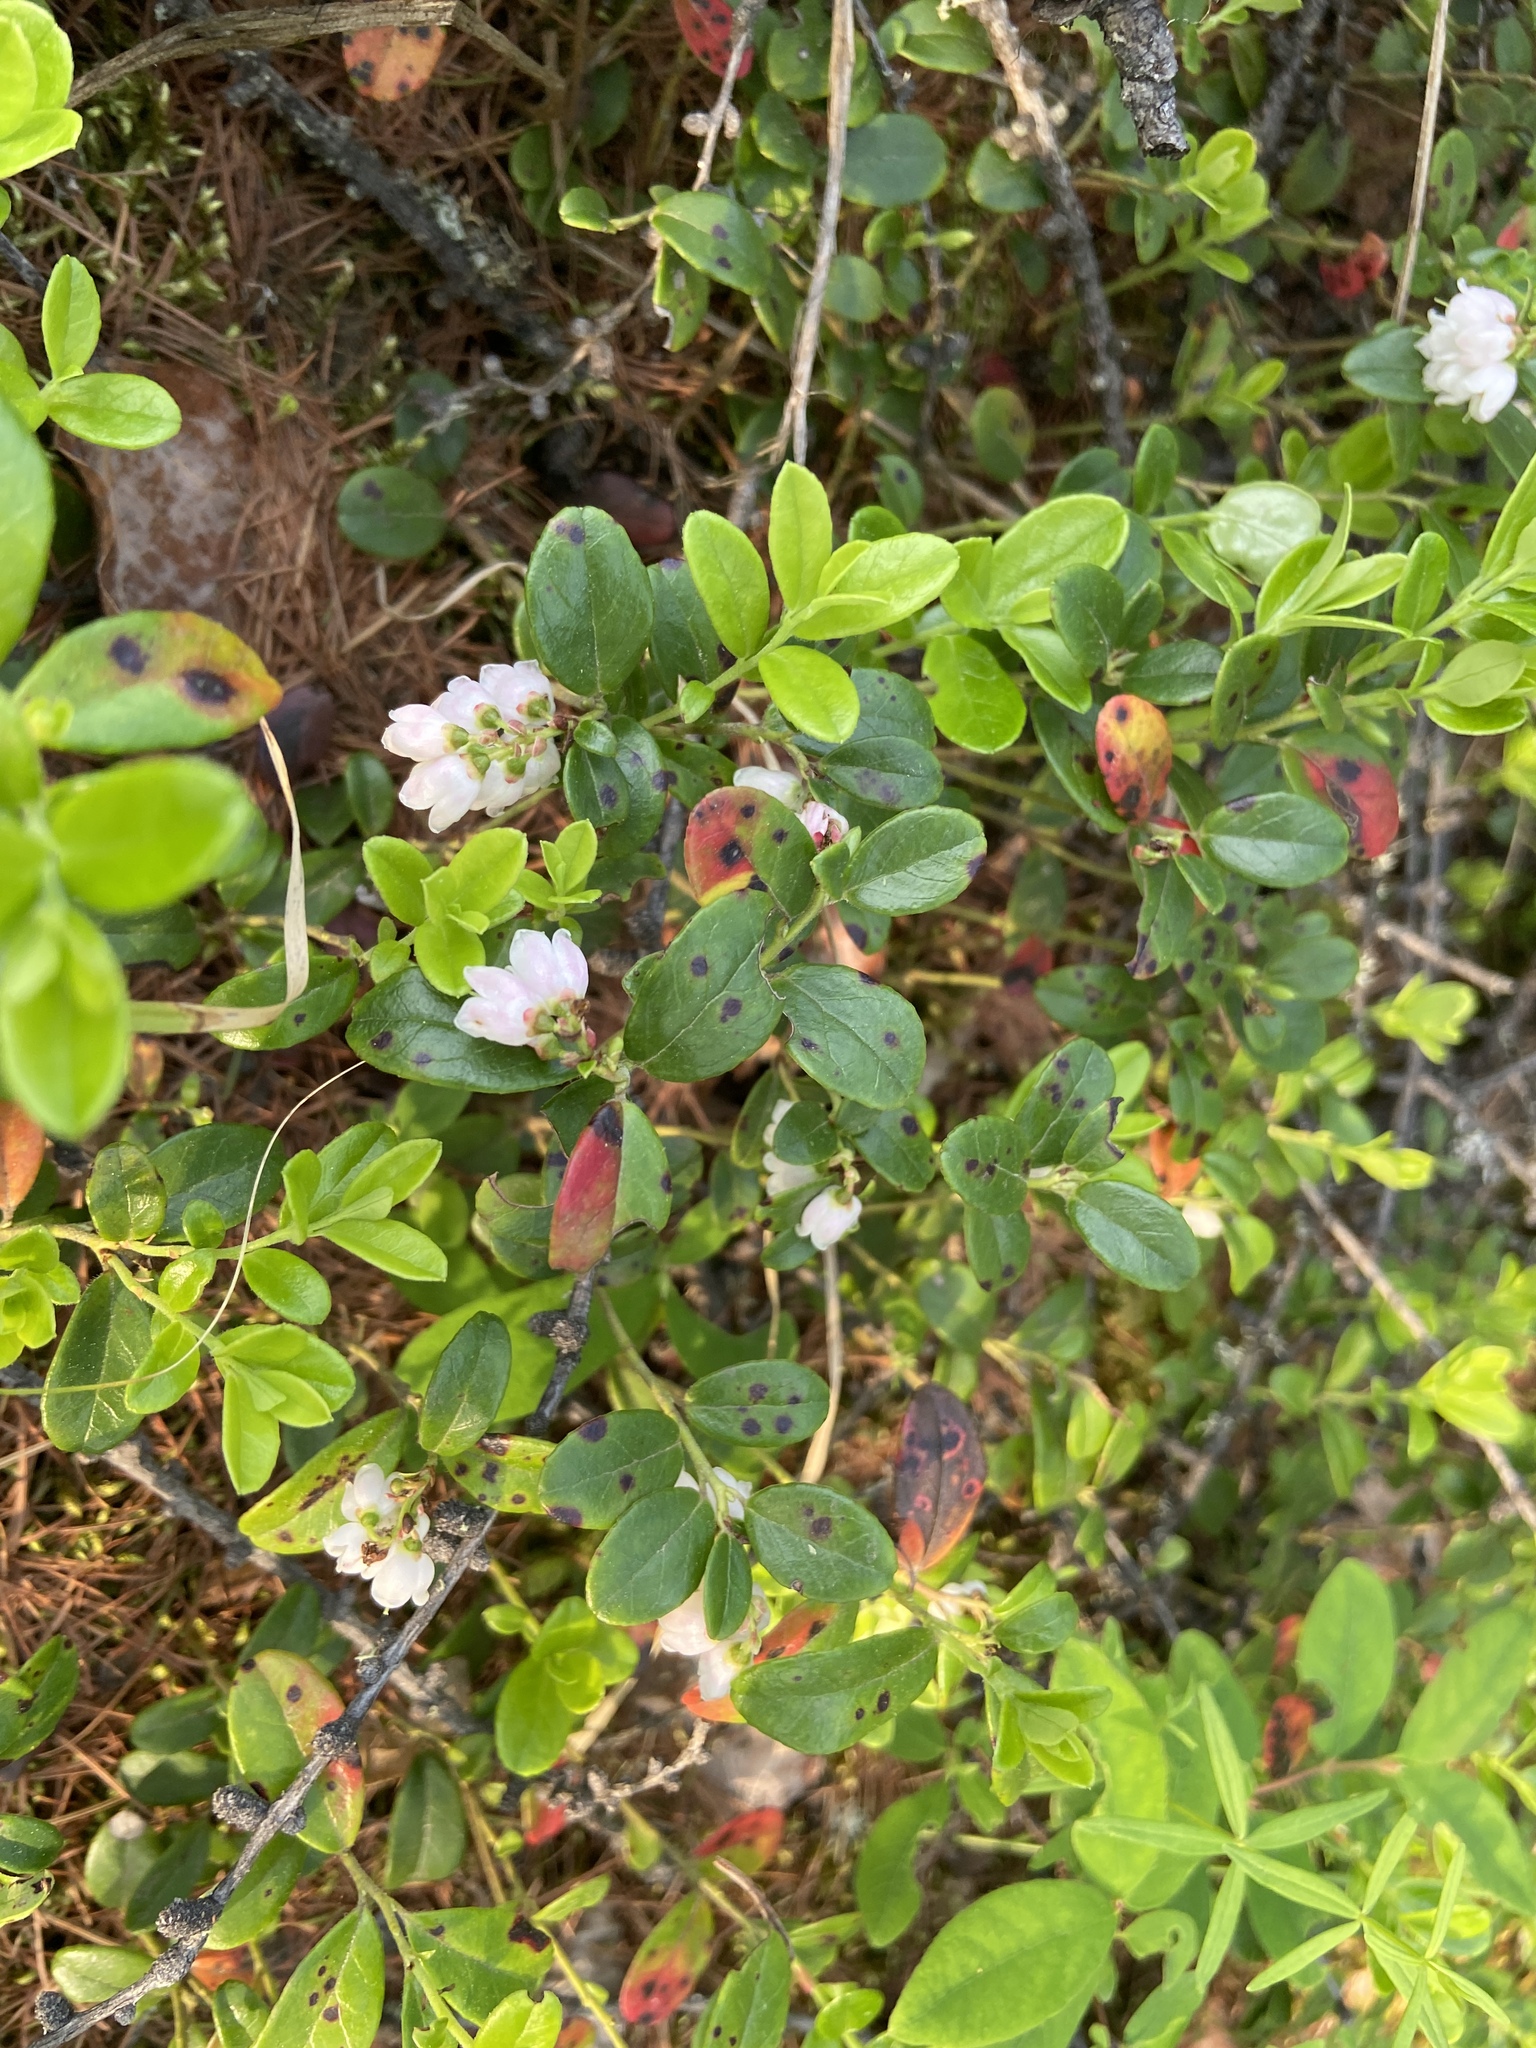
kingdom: Plantae
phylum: Tracheophyta
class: Magnoliopsida
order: Ericales
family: Ericaceae
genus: Vaccinium
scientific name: Vaccinium vitis-idaea
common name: Cowberry
